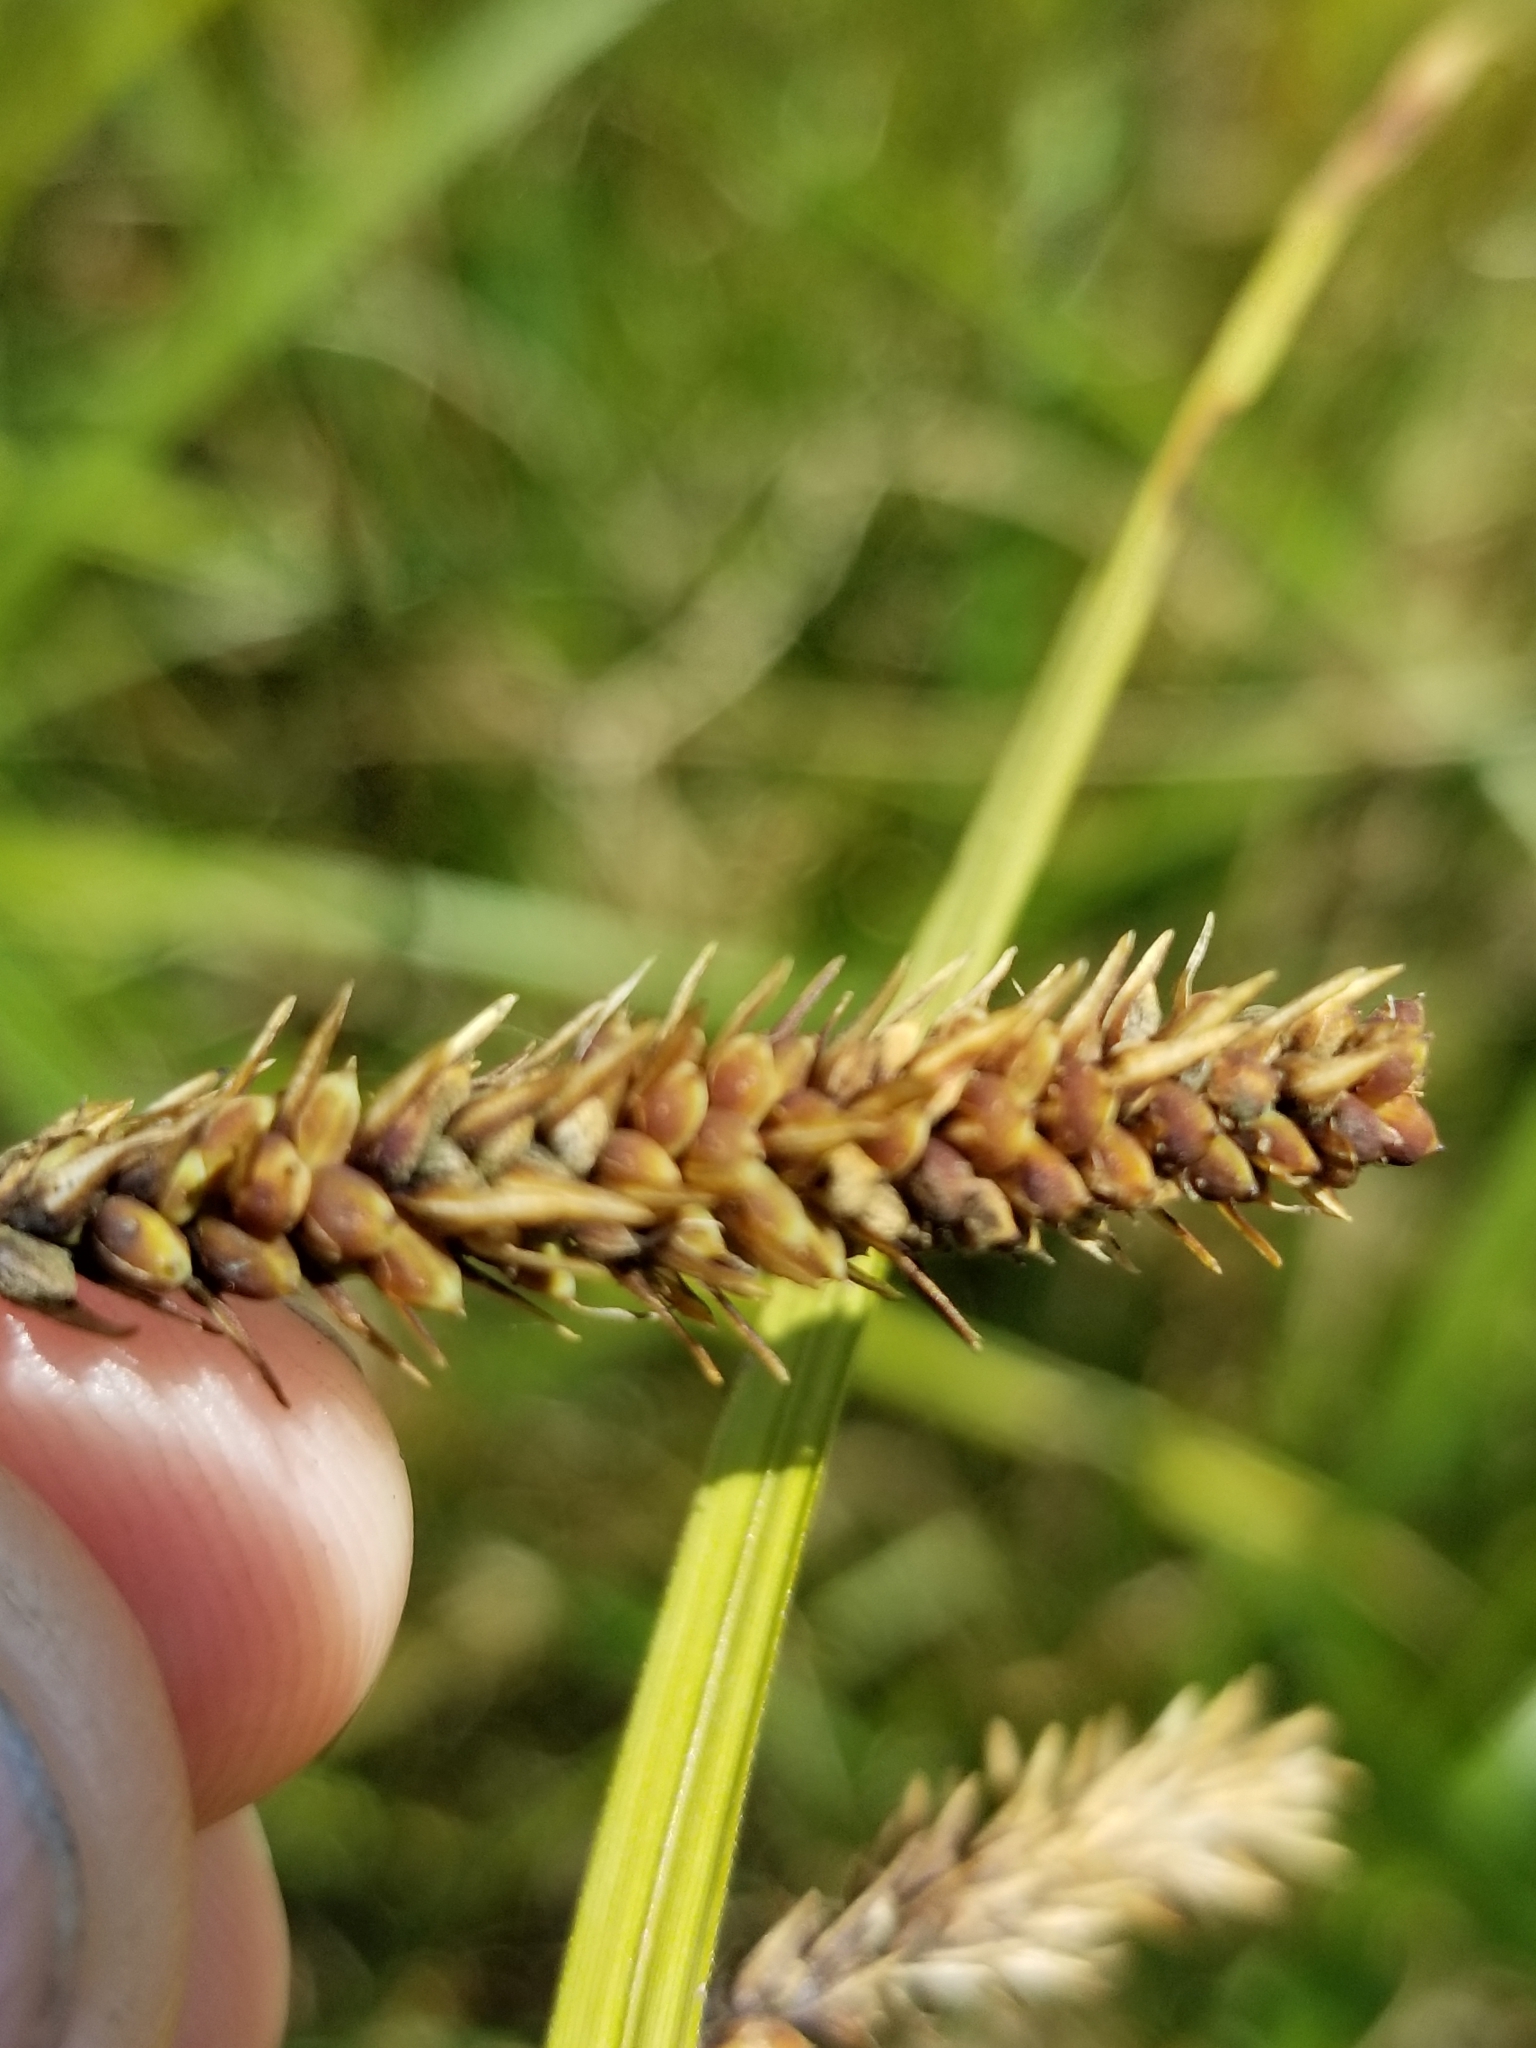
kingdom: Plantae
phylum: Tracheophyta
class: Liliopsida
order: Poales
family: Cyperaceae
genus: Carex
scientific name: Carex obnupta
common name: Slough sedge
